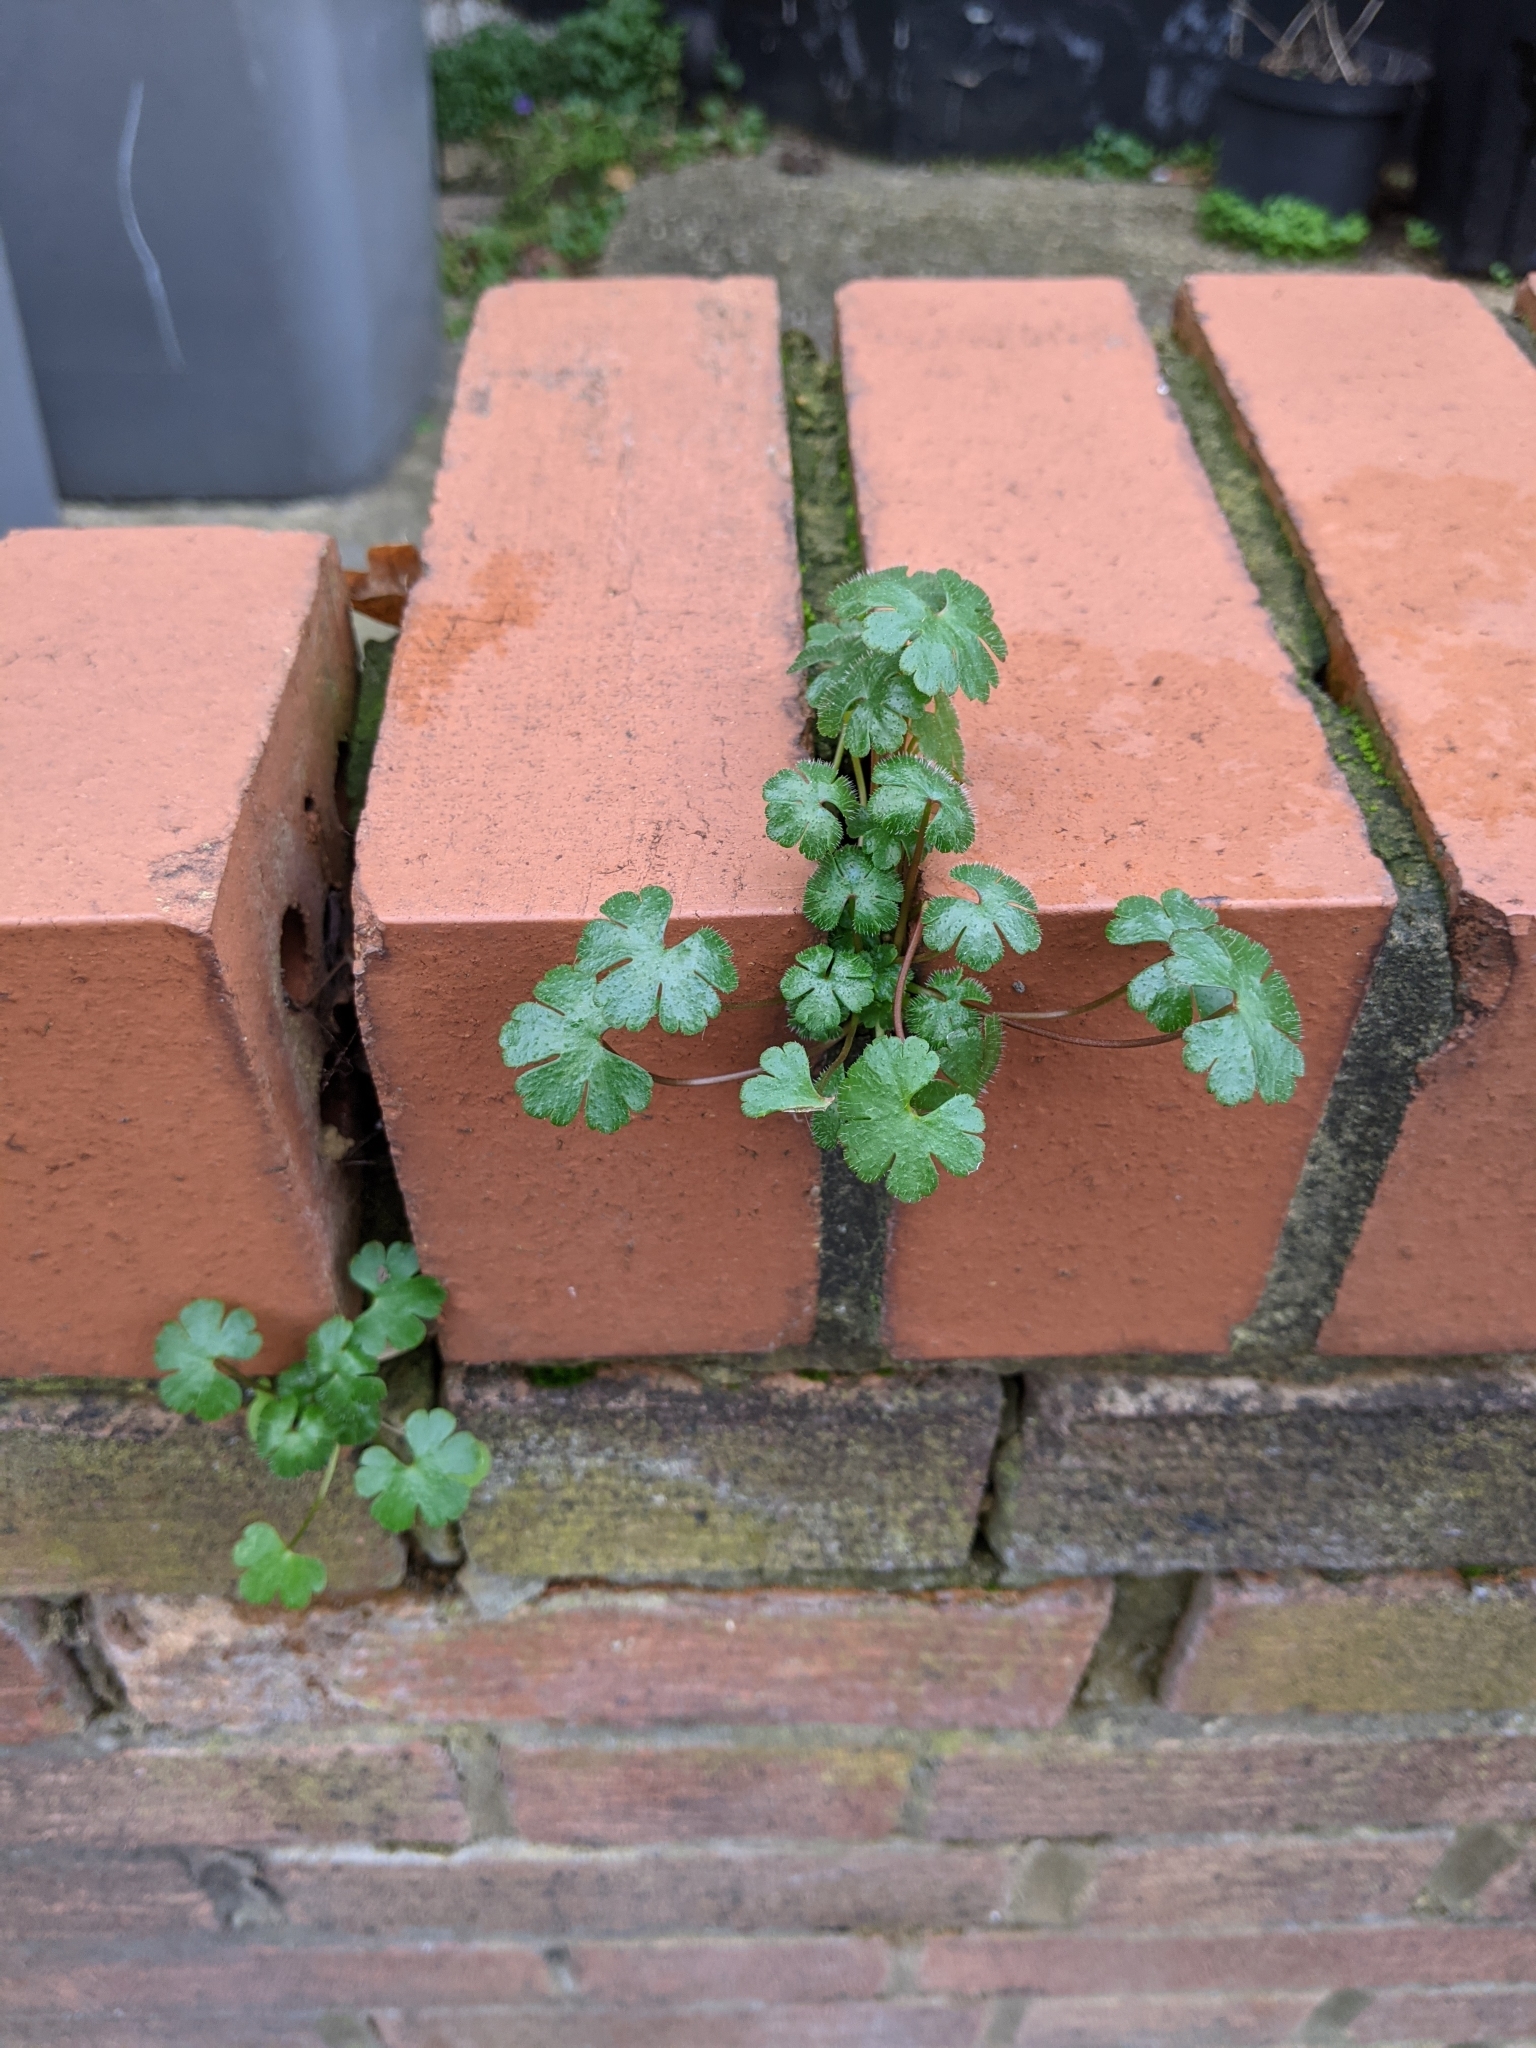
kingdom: Plantae
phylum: Tracheophyta
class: Magnoliopsida
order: Geraniales
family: Geraniaceae
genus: Geranium
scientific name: Geranium lucidum
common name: Shining crane's-bill
